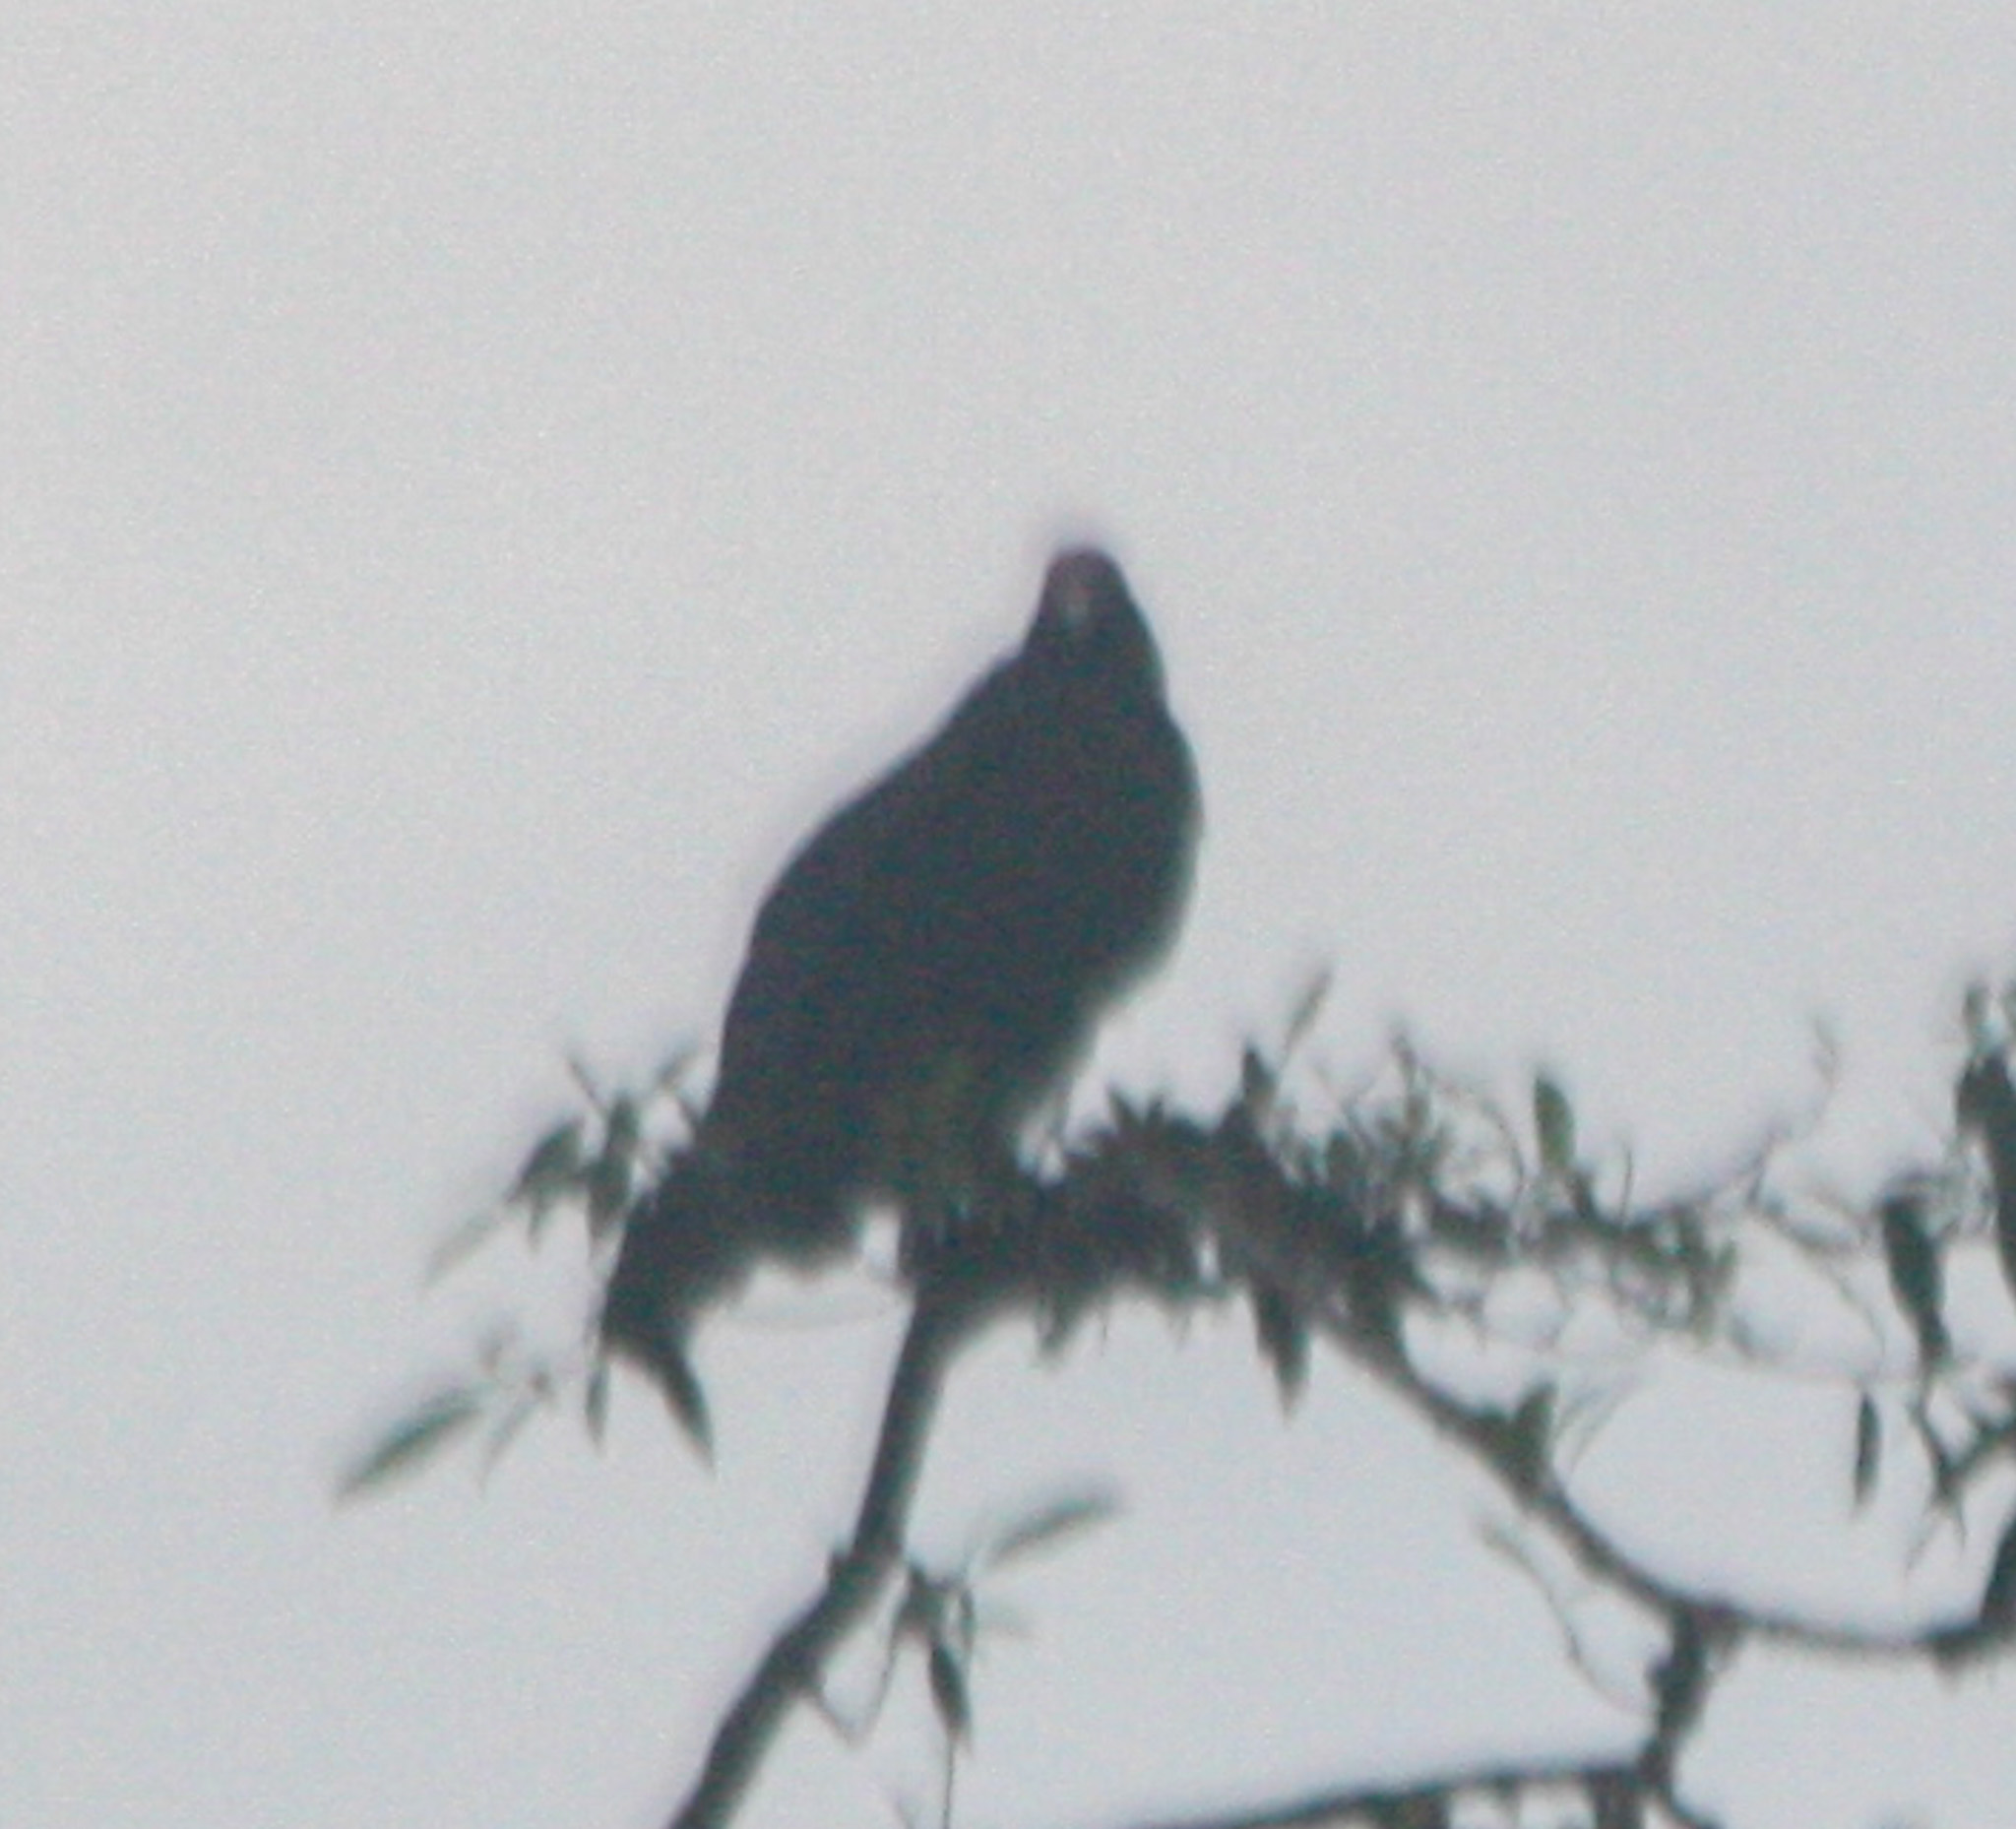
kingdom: Animalia
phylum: Chordata
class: Aves
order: Accipitriformes
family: Cathartidae
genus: Cathartes
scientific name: Cathartes aura
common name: Turkey vulture
